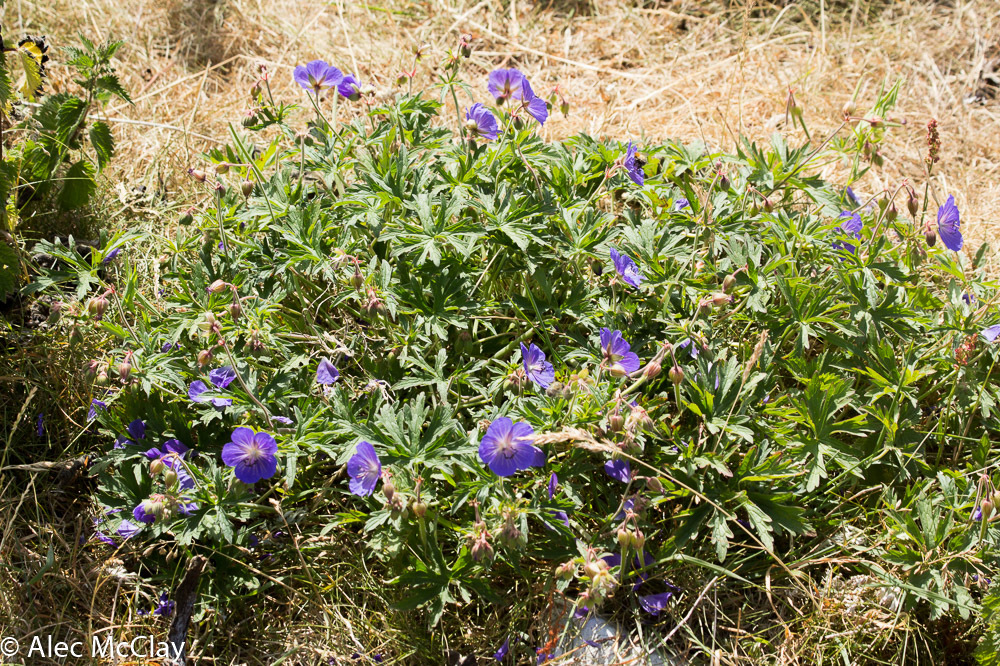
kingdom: Plantae
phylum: Tracheophyta
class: Magnoliopsida
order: Geraniales
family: Geraniaceae
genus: Geranium
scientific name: Geranium pratense
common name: Meadow crane's-bill
